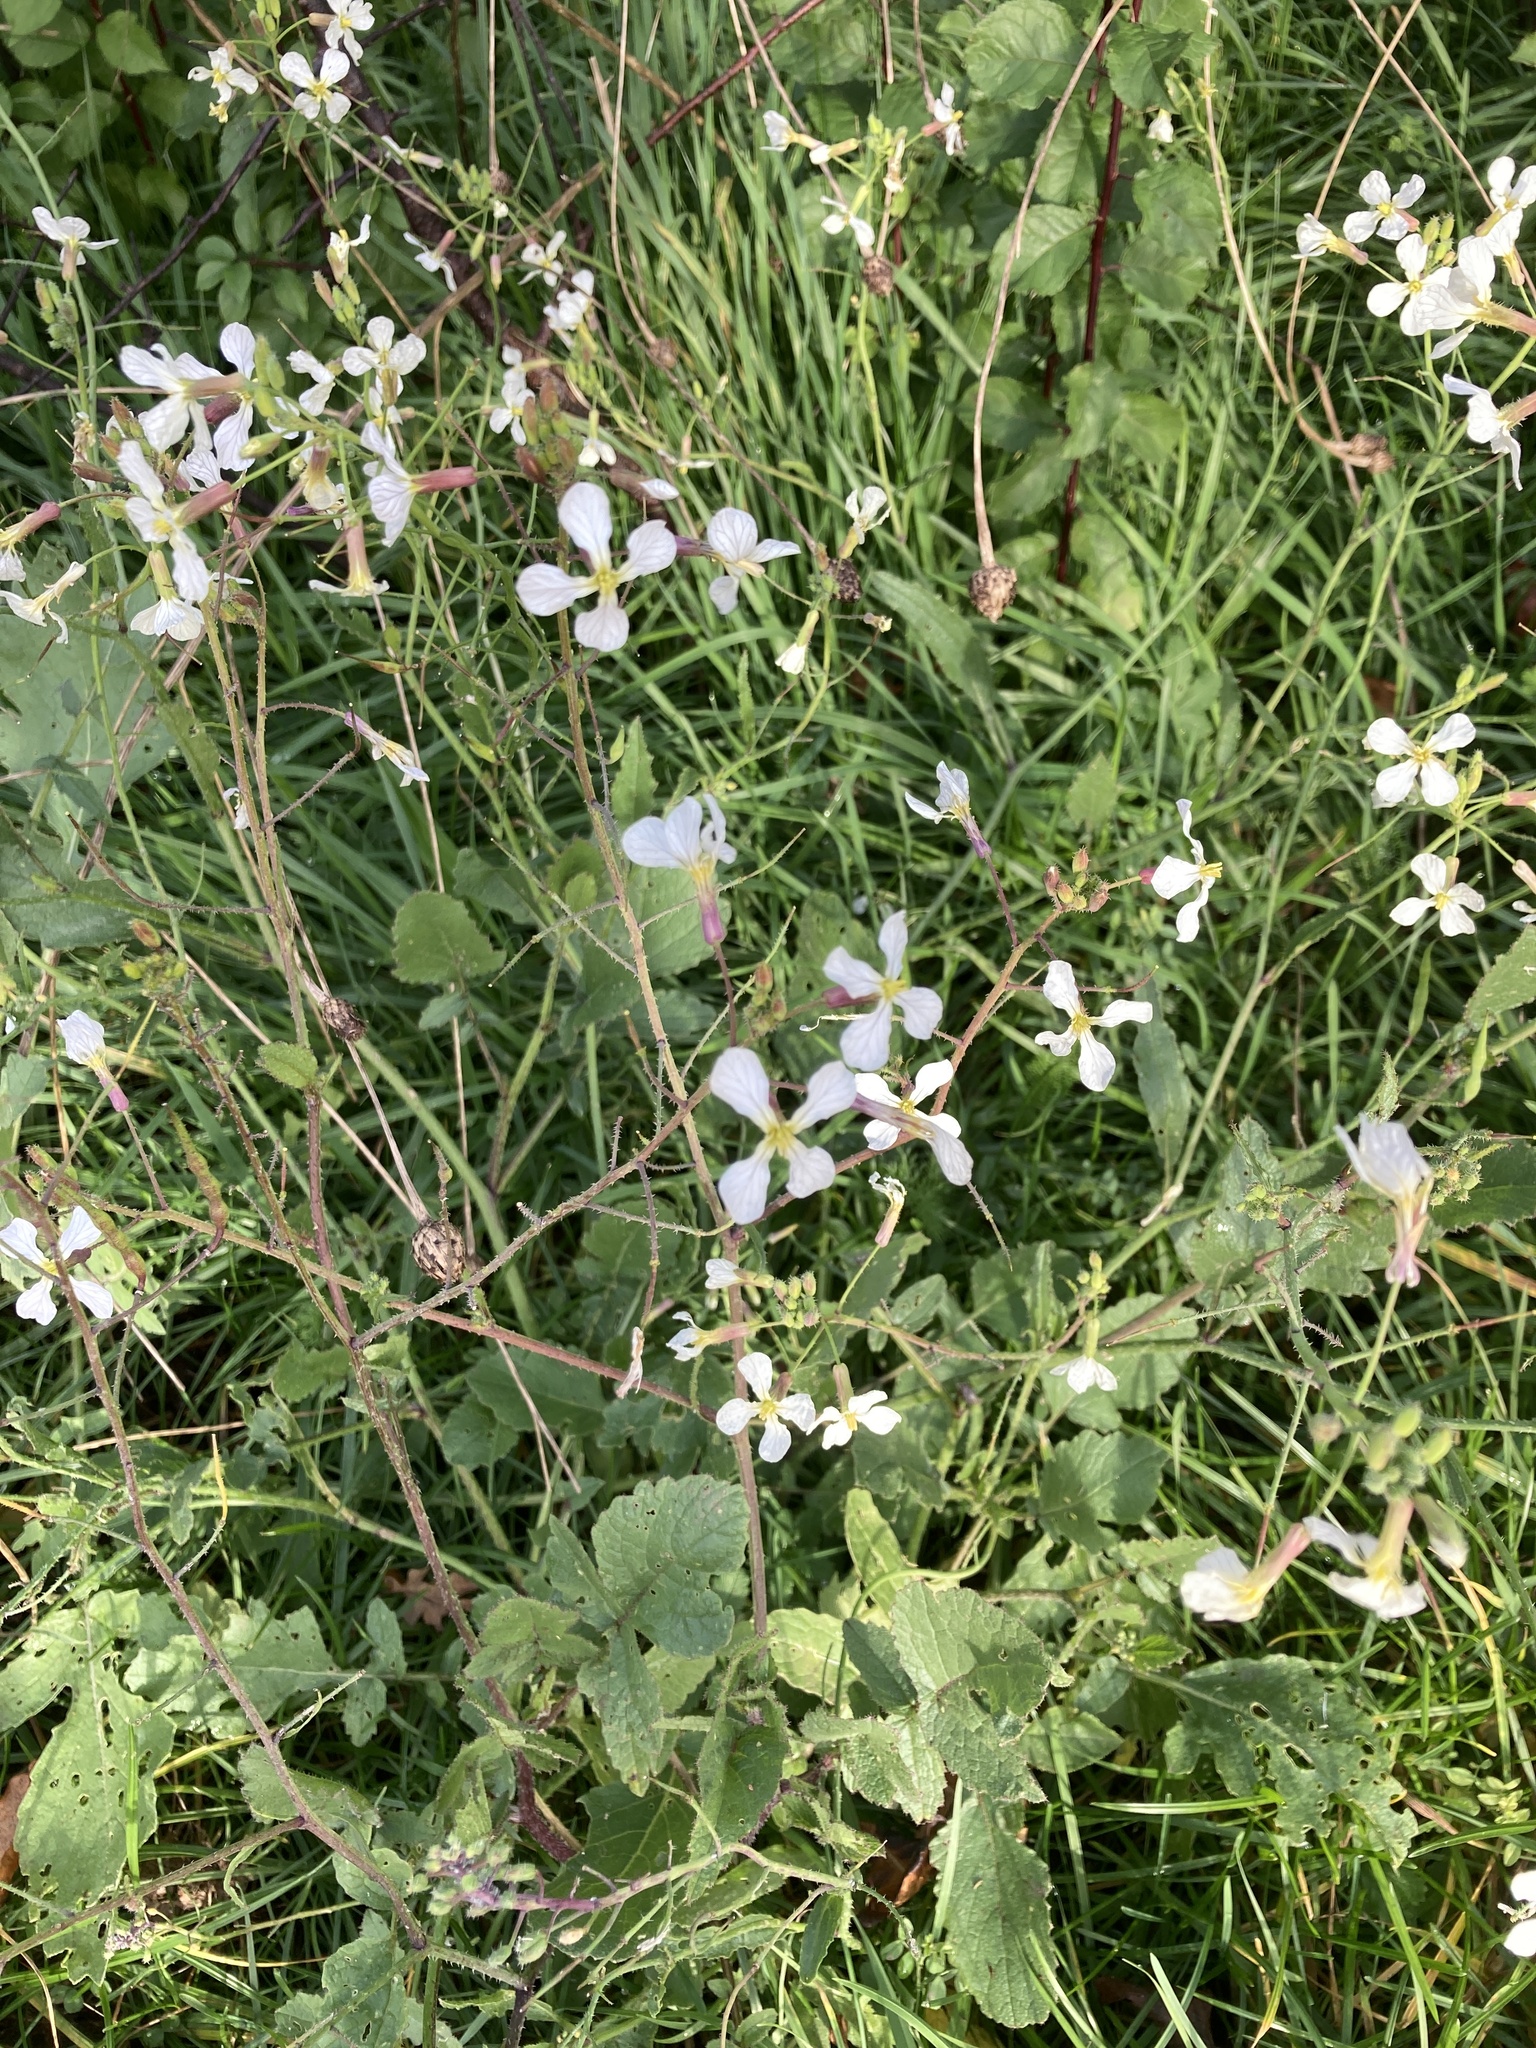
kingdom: Plantae
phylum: Tracheophyta
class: Magnoliopsida
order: Brassicales
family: Brassicaceae
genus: Raphanus
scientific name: Raphanus raphanistrum
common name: Wild radish
